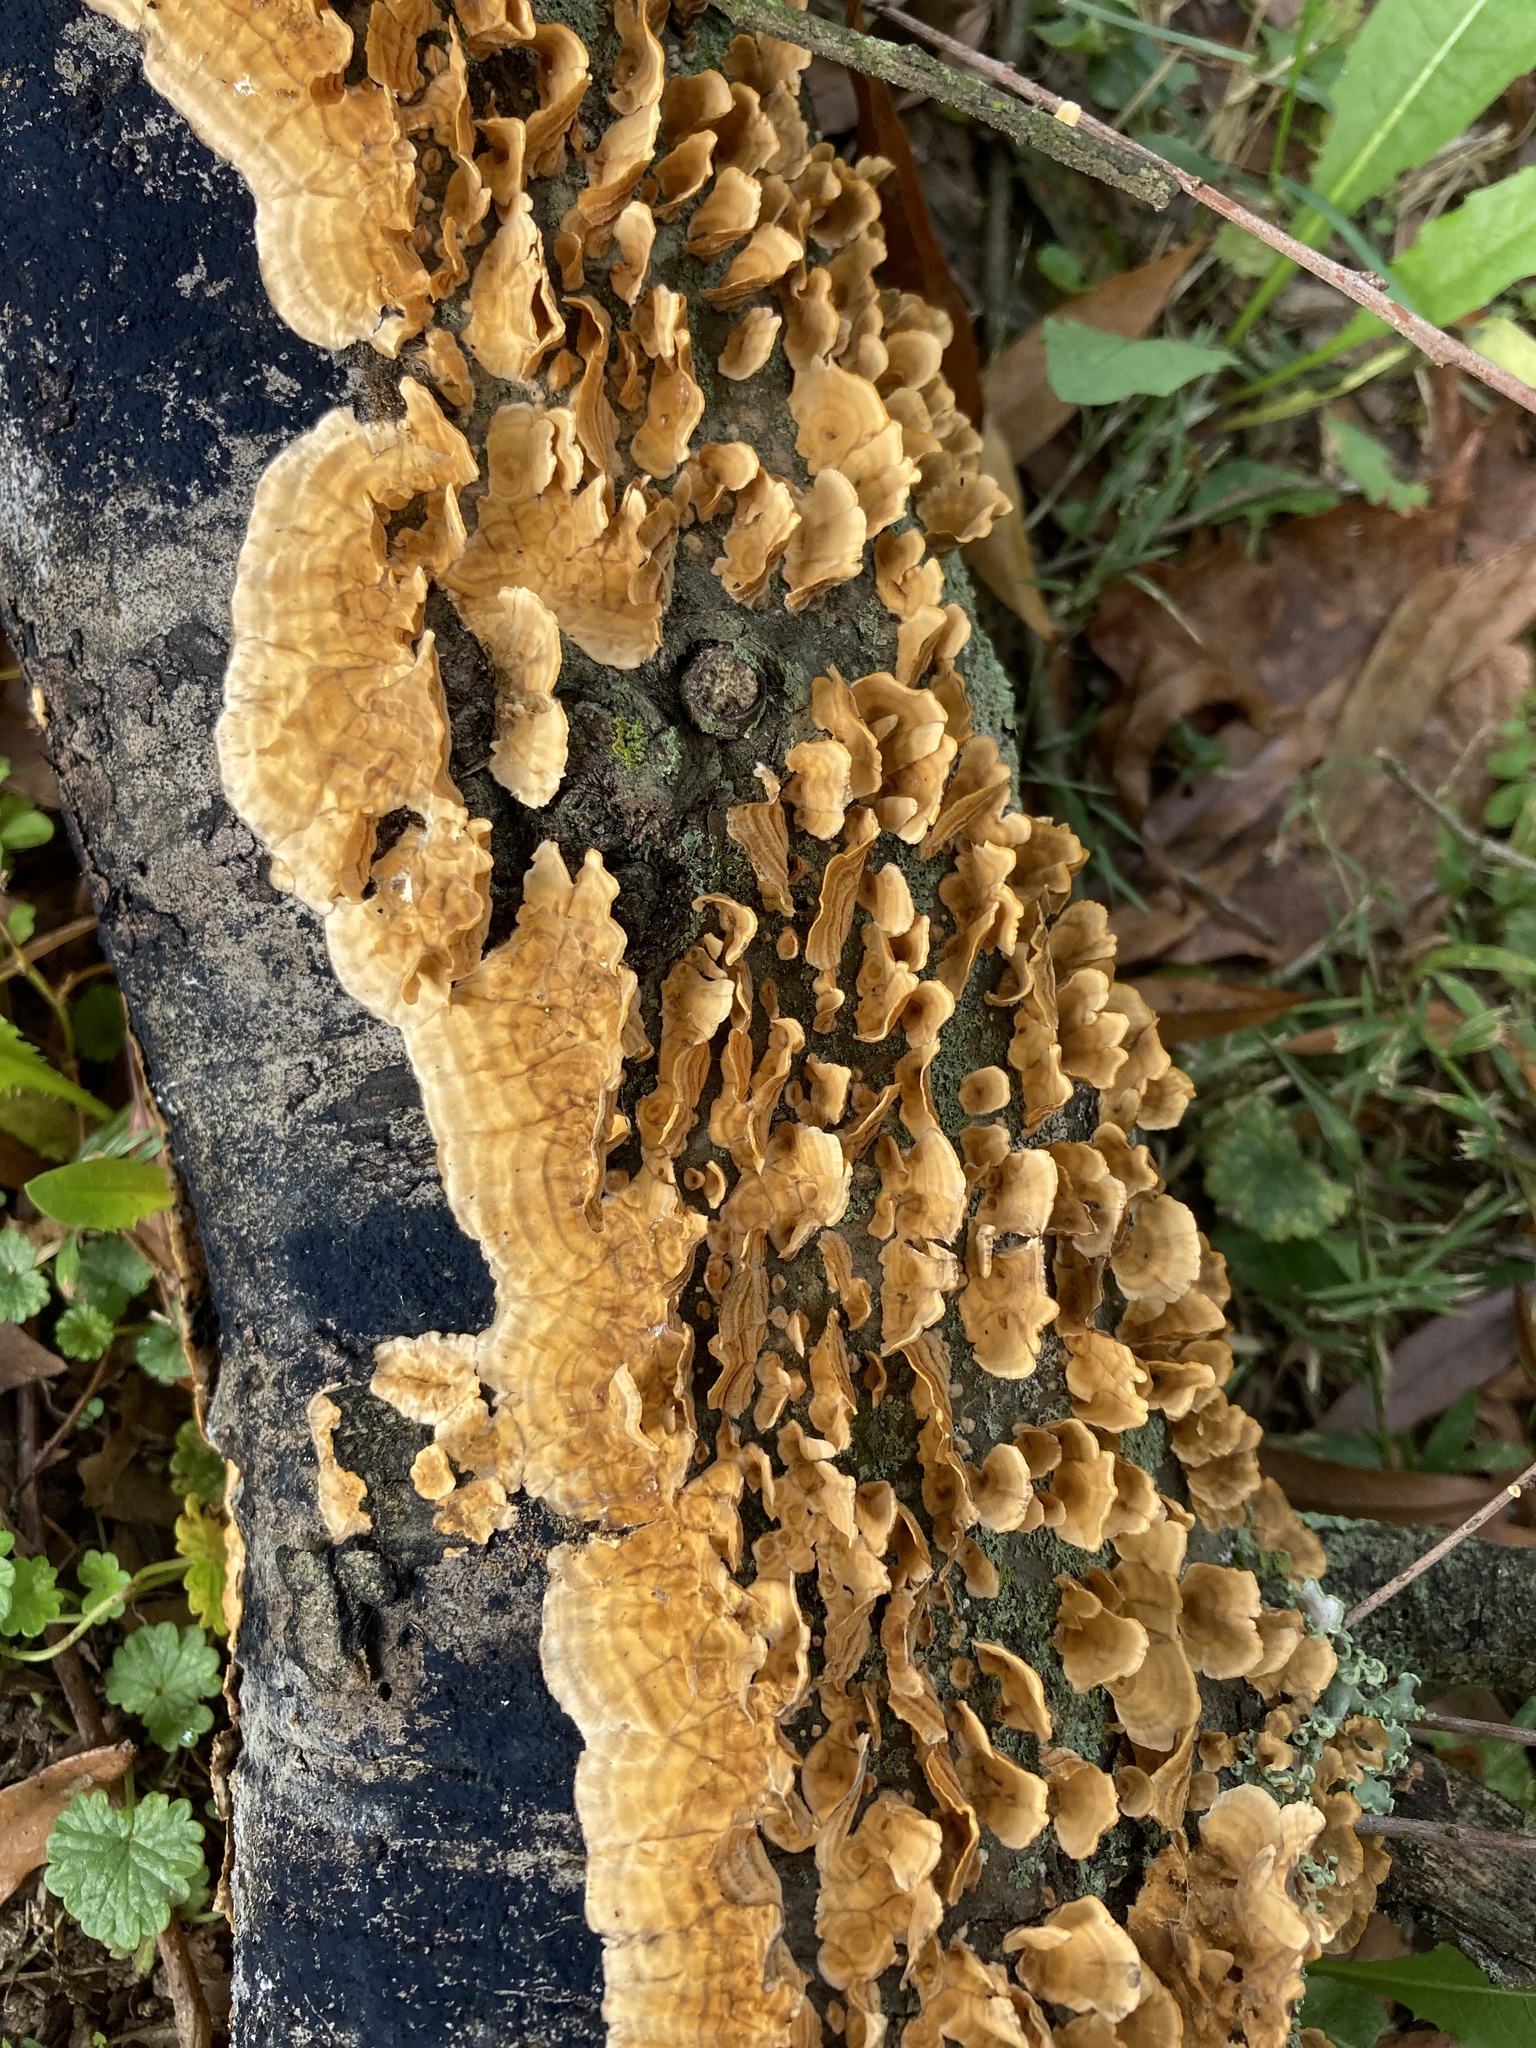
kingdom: Fungi
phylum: Basidiomycota
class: Agaricomycetes
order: Russulales
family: Stereaceae
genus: Stereum
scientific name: Stereum complicatum
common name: Crowded parchment
